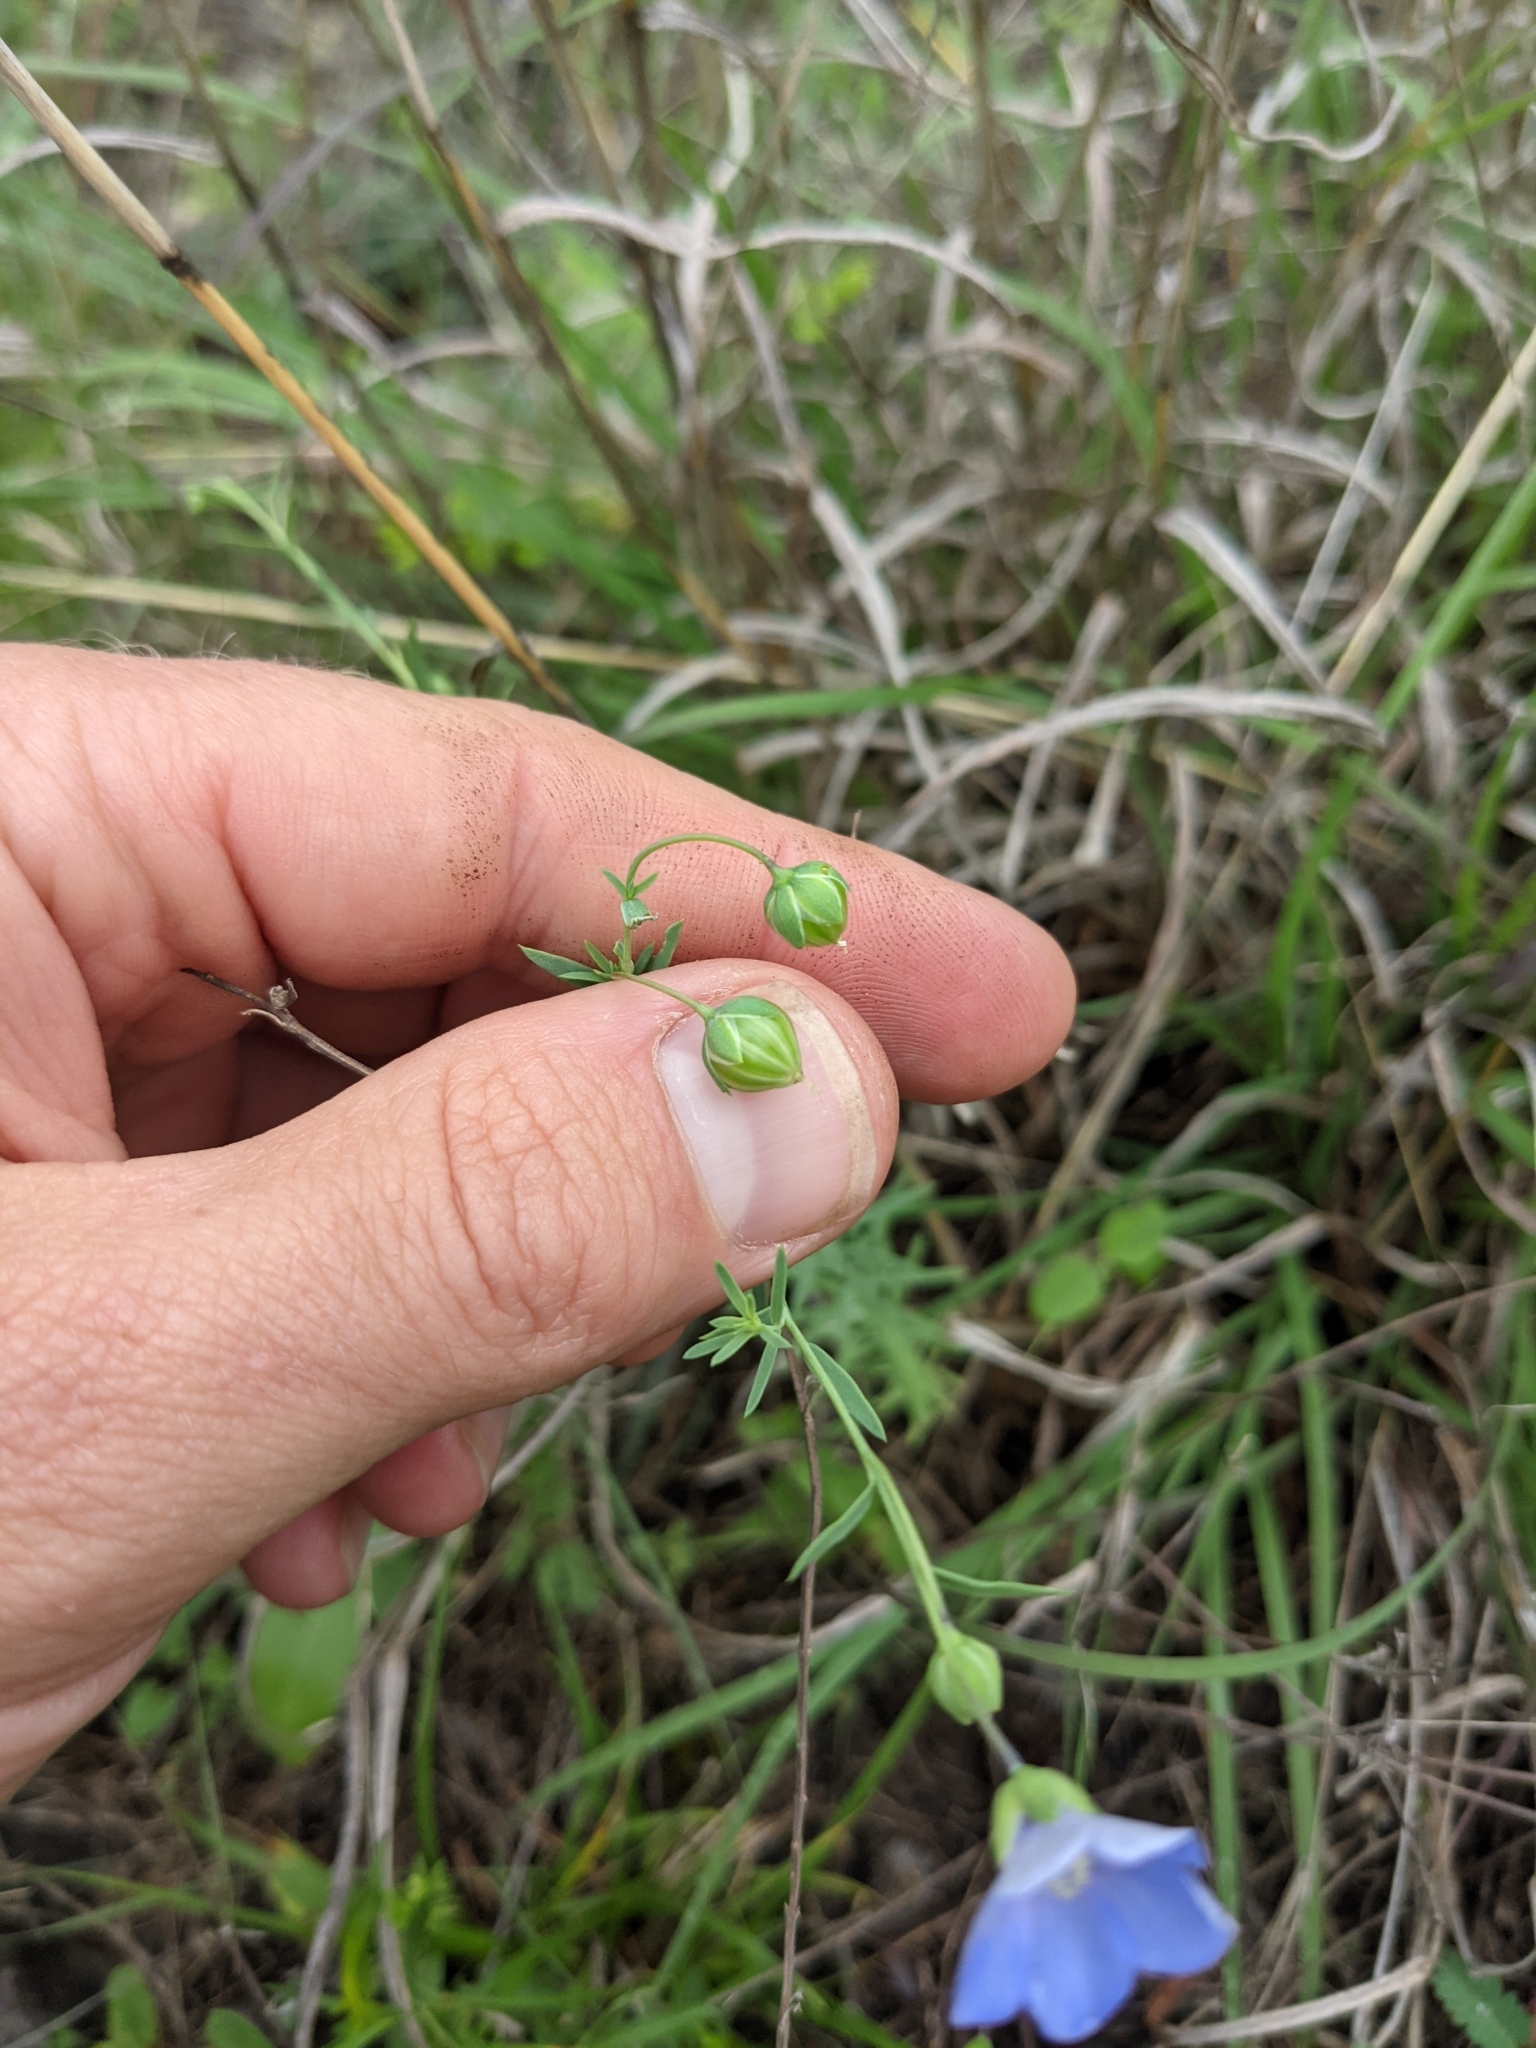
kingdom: Plantae
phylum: Tracheophyta
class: Magnoliopsida
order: Malpighiales
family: Linaceae
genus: Linum
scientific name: Linum pratense
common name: Norton's flax
